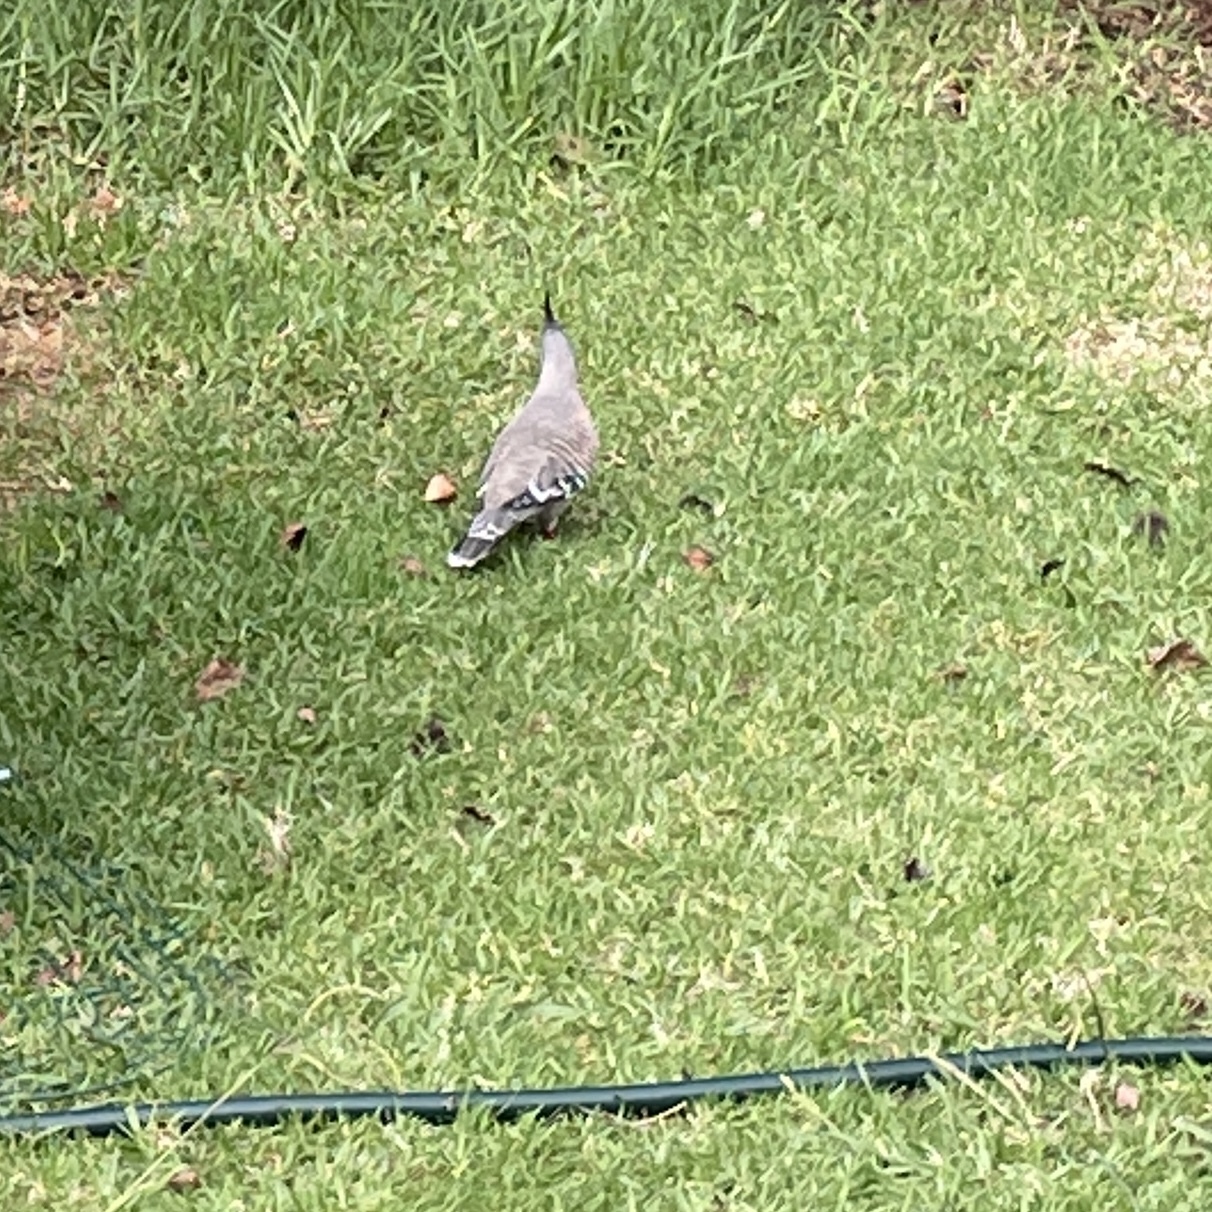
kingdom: Animalia
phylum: Chordata
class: Aves
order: Columbiformes
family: Columbidae
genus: Ocyphaps
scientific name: Ocyphaps lophotes
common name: Crested pigeon
